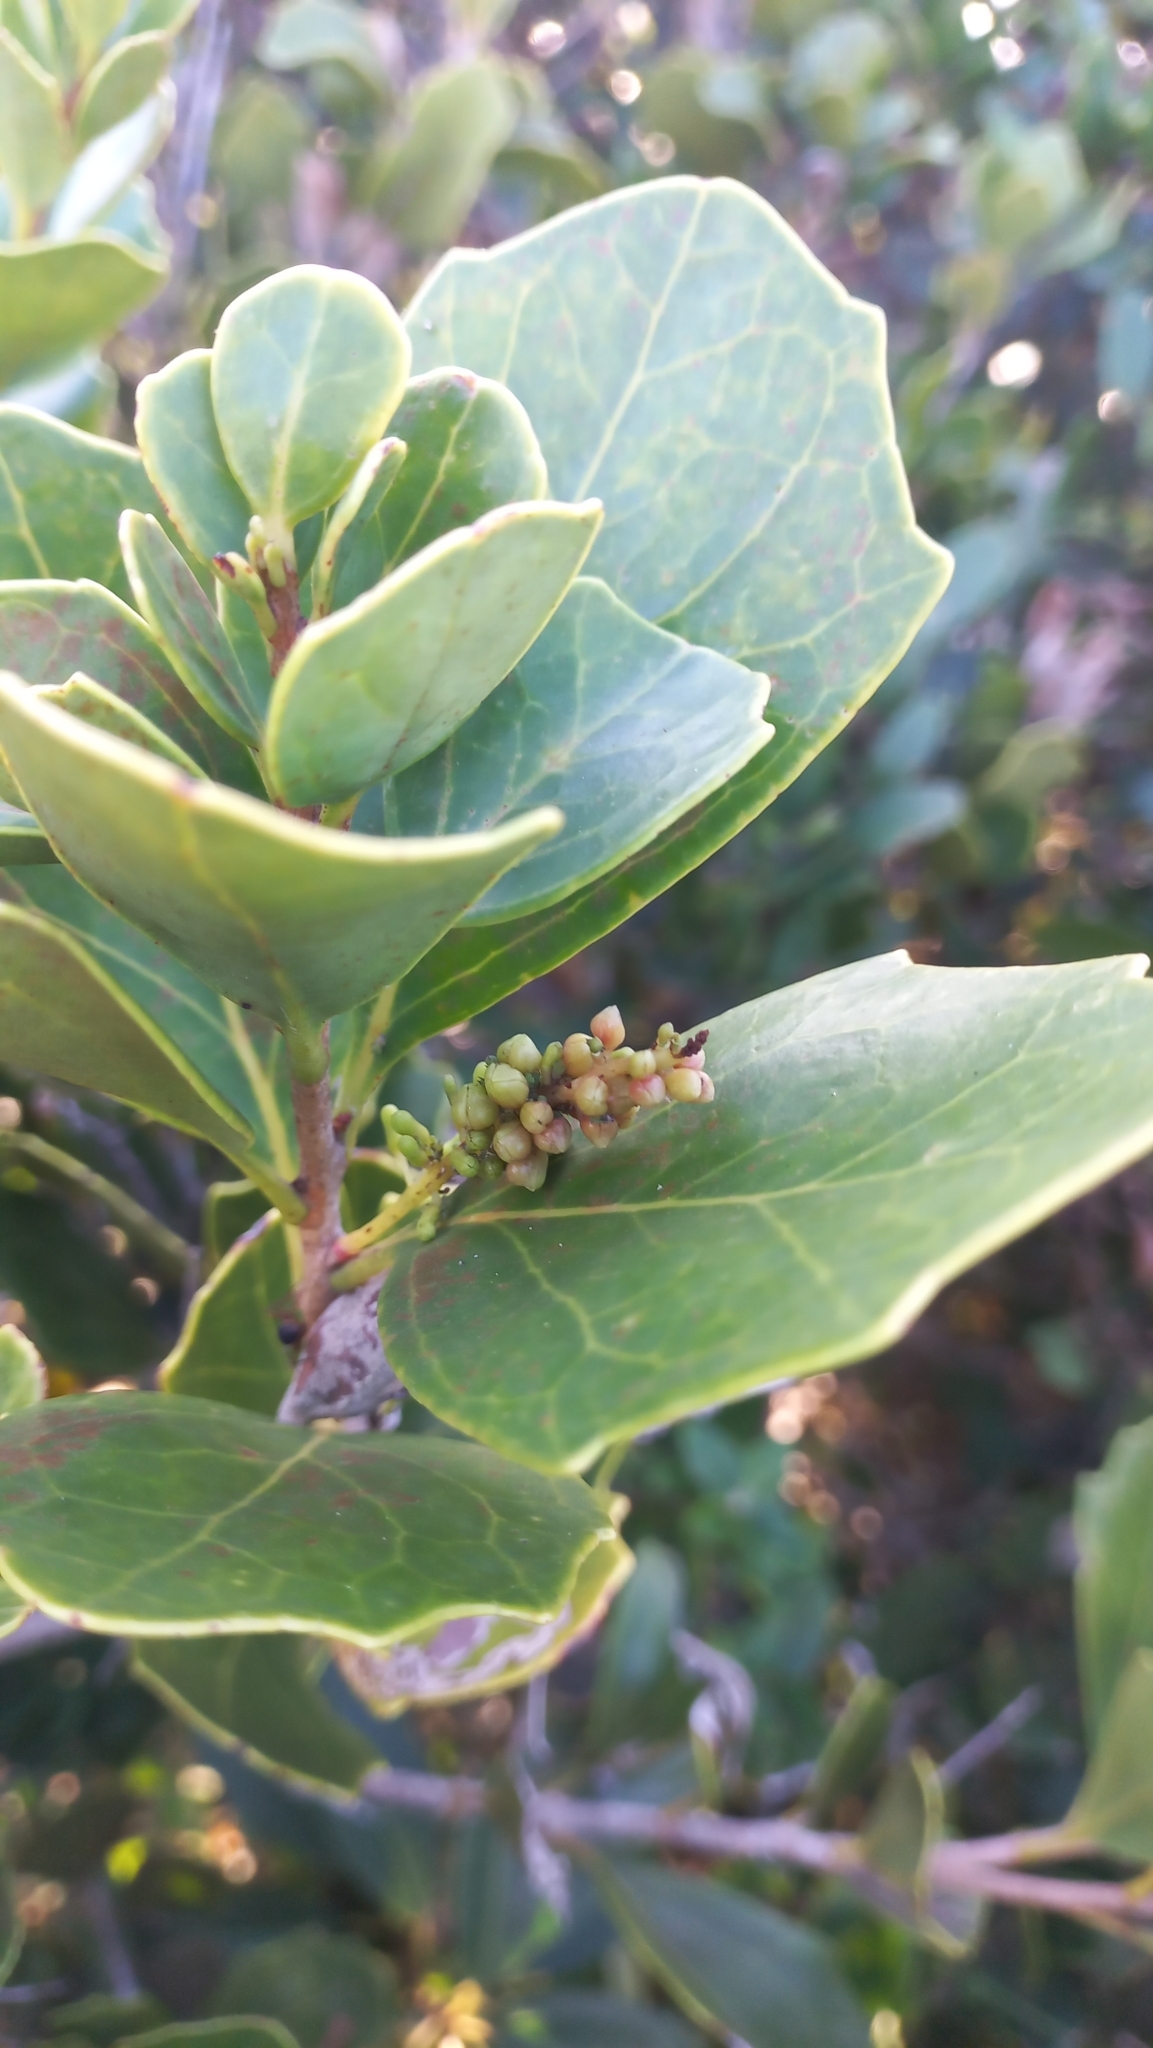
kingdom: Plantae
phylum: Tracheophyta
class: Magnoliopsida
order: Proteales
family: Proteaceae
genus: Roupala
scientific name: Roupala pallida
